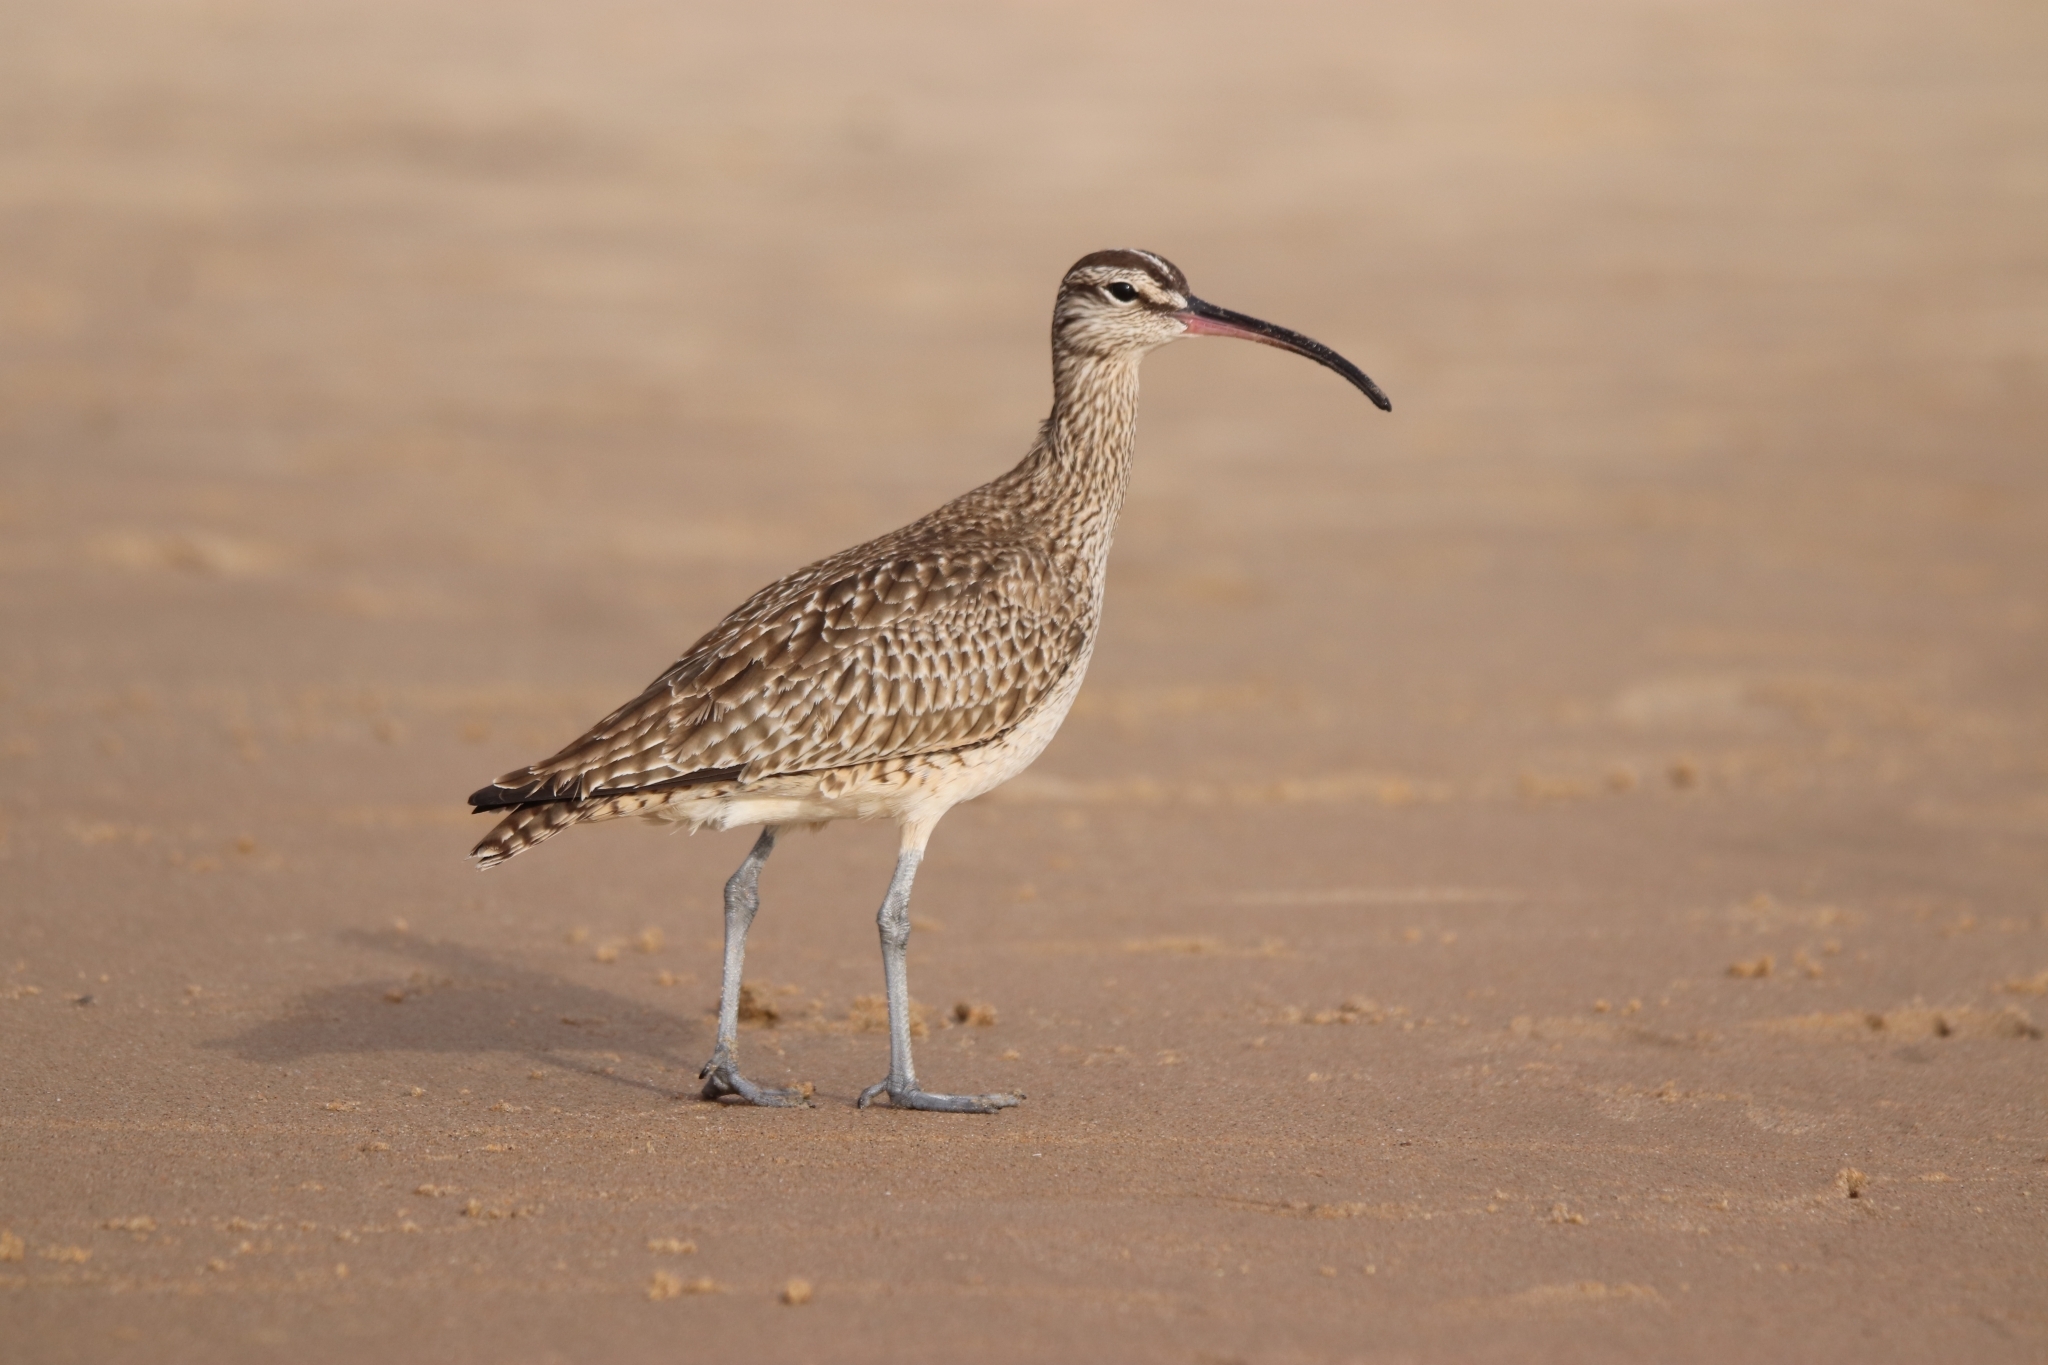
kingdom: Animalia
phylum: Chordata
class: Aves
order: Charadriiformes
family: Scolopacidae
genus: Numenius
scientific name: Numenius phaeopus
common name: Whimbrel
